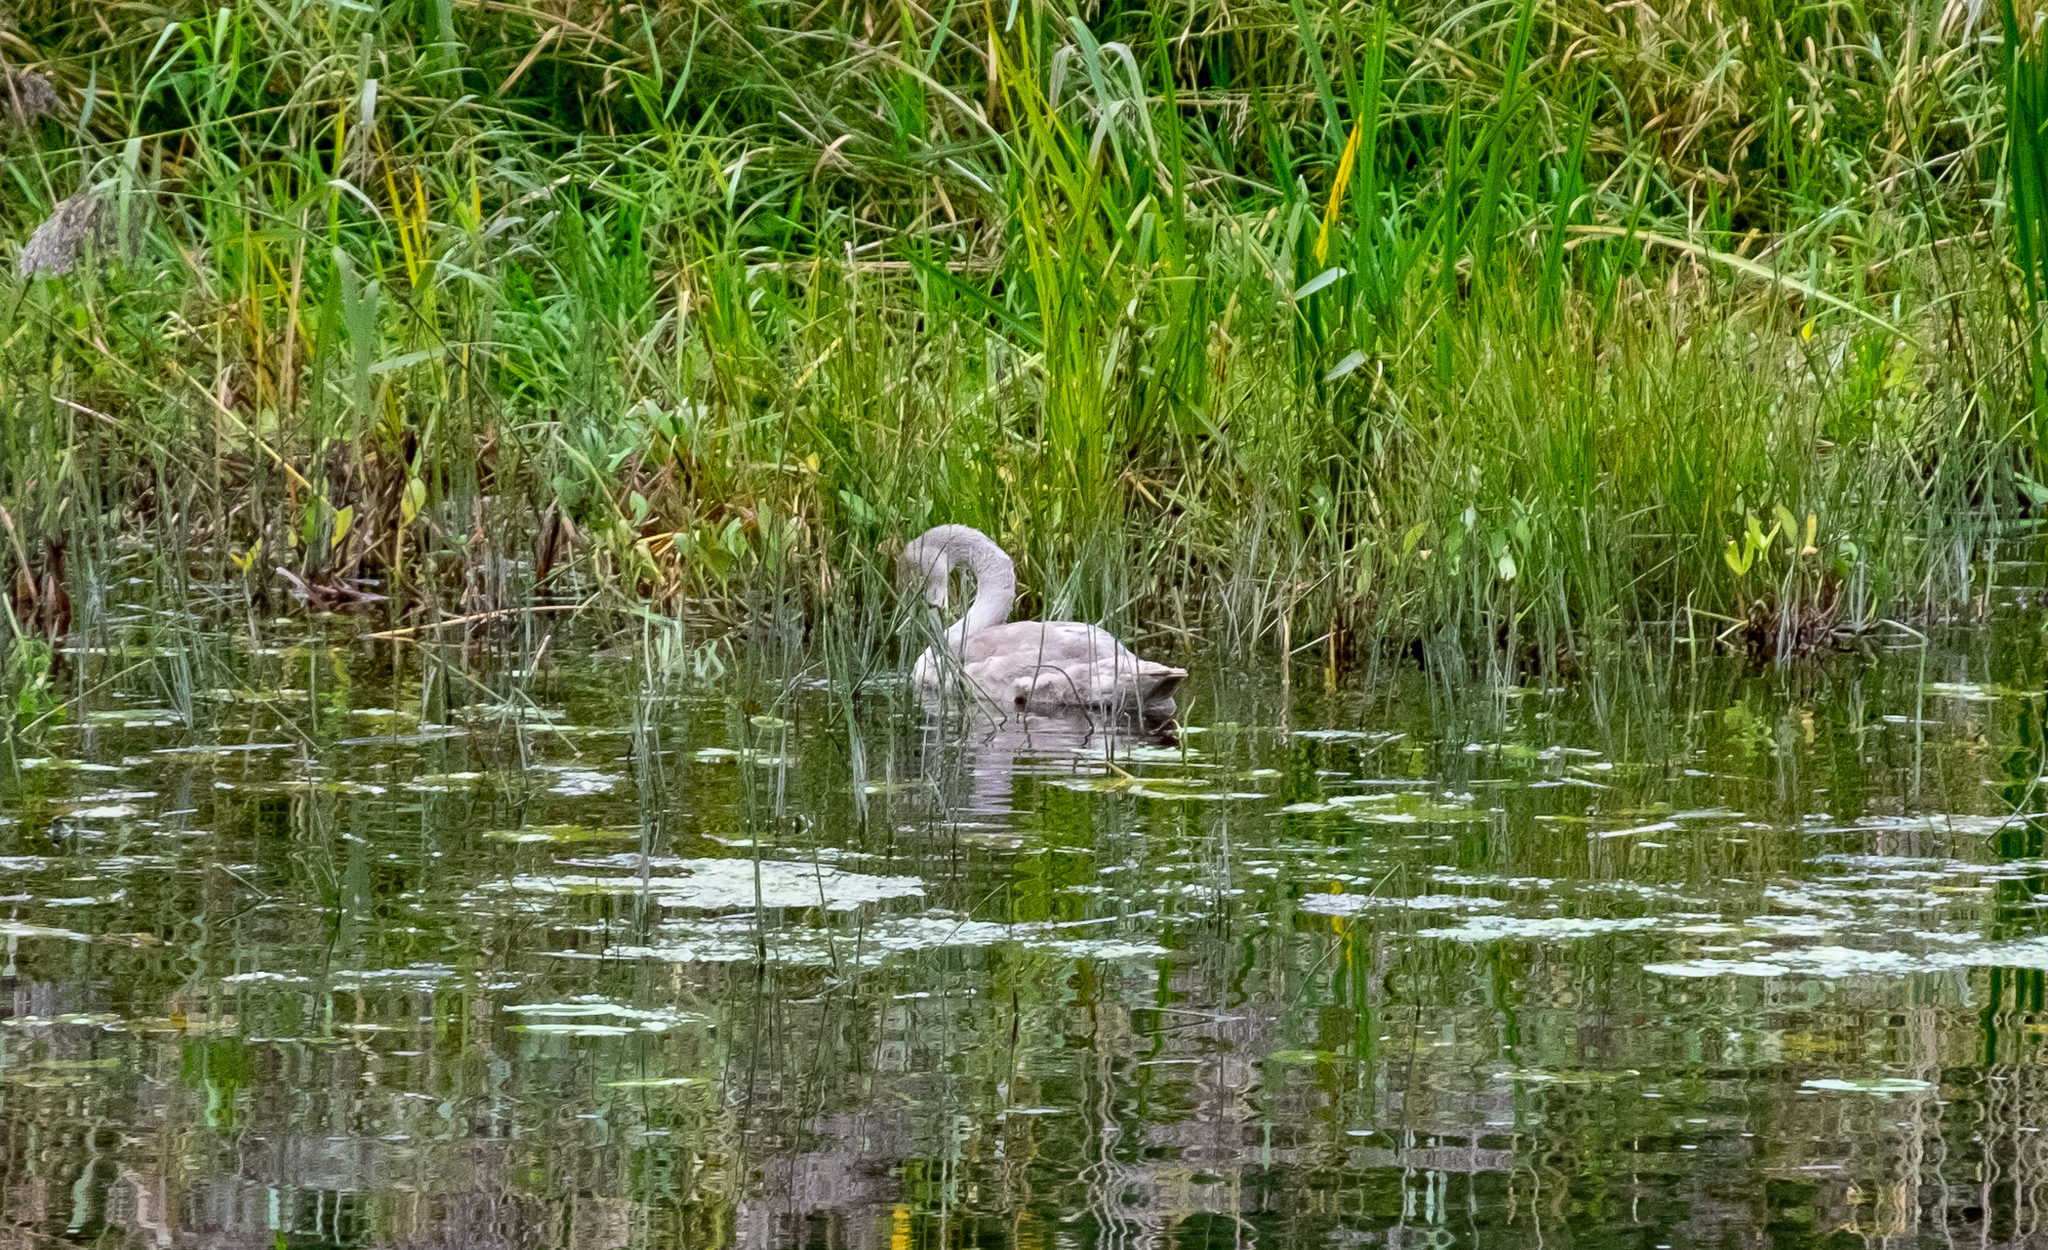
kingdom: Animalia
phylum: Chordata
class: Aves
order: Anseriformes
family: Anatidae
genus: Cygnus
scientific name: Cygnus olor
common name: Mute swan
